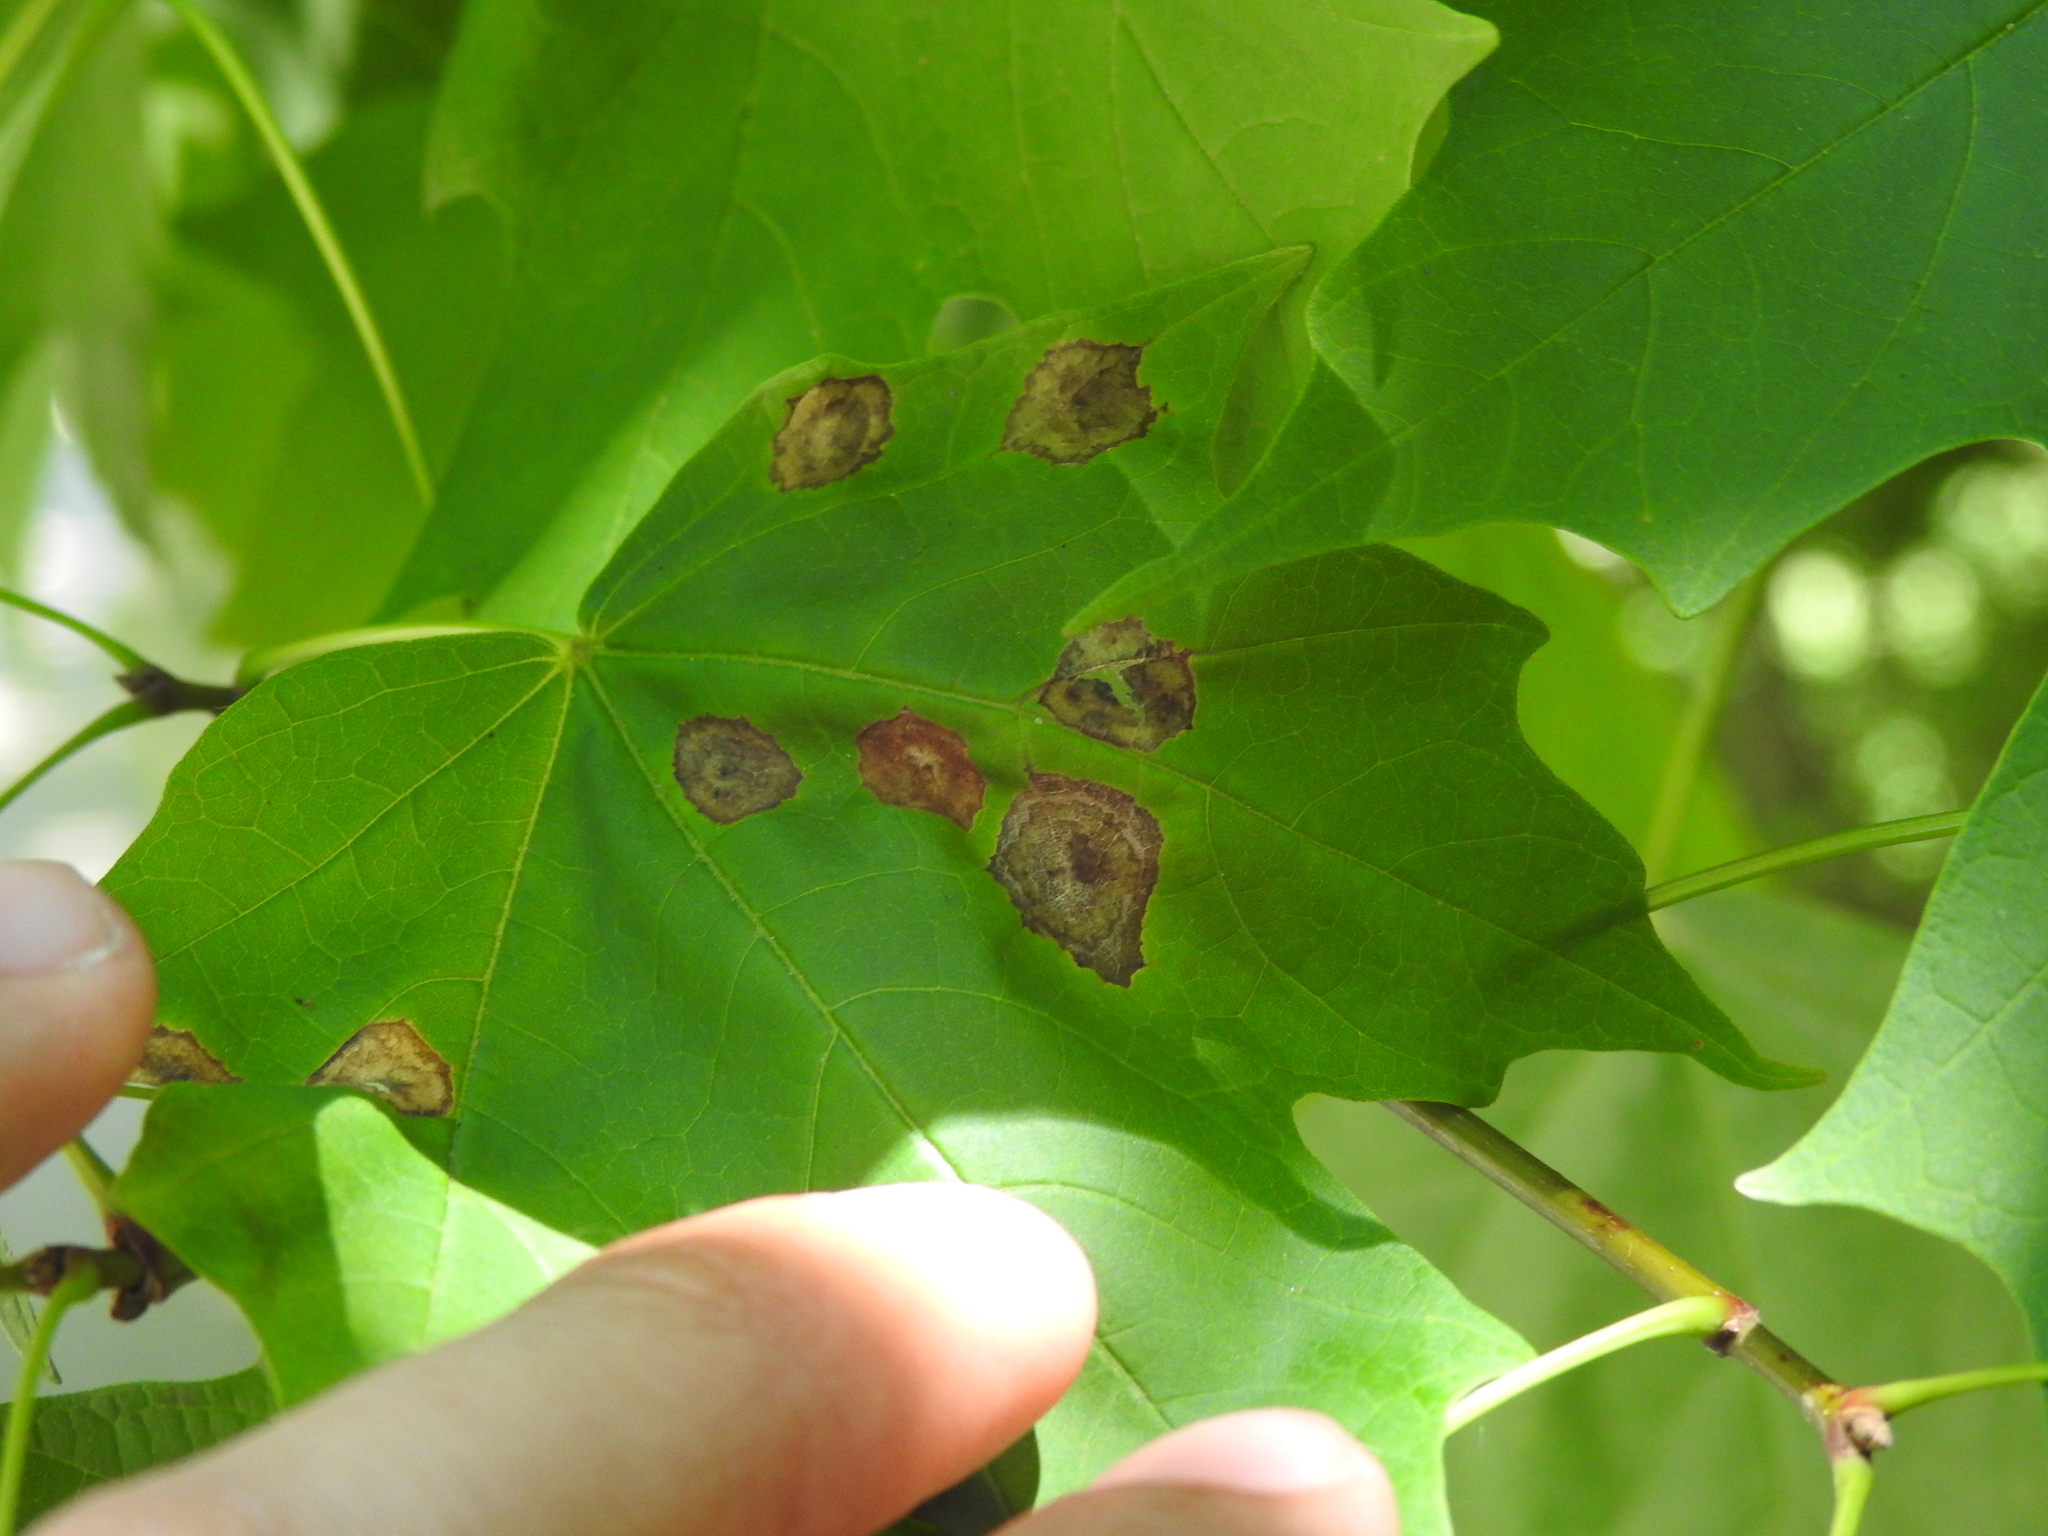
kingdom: Animalia
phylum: Arthropoda
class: Insecta
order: Diptera
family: Cecidomyiidae
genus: Acericecis
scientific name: Acericecis ocellaris
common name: Ocellate gall midge
